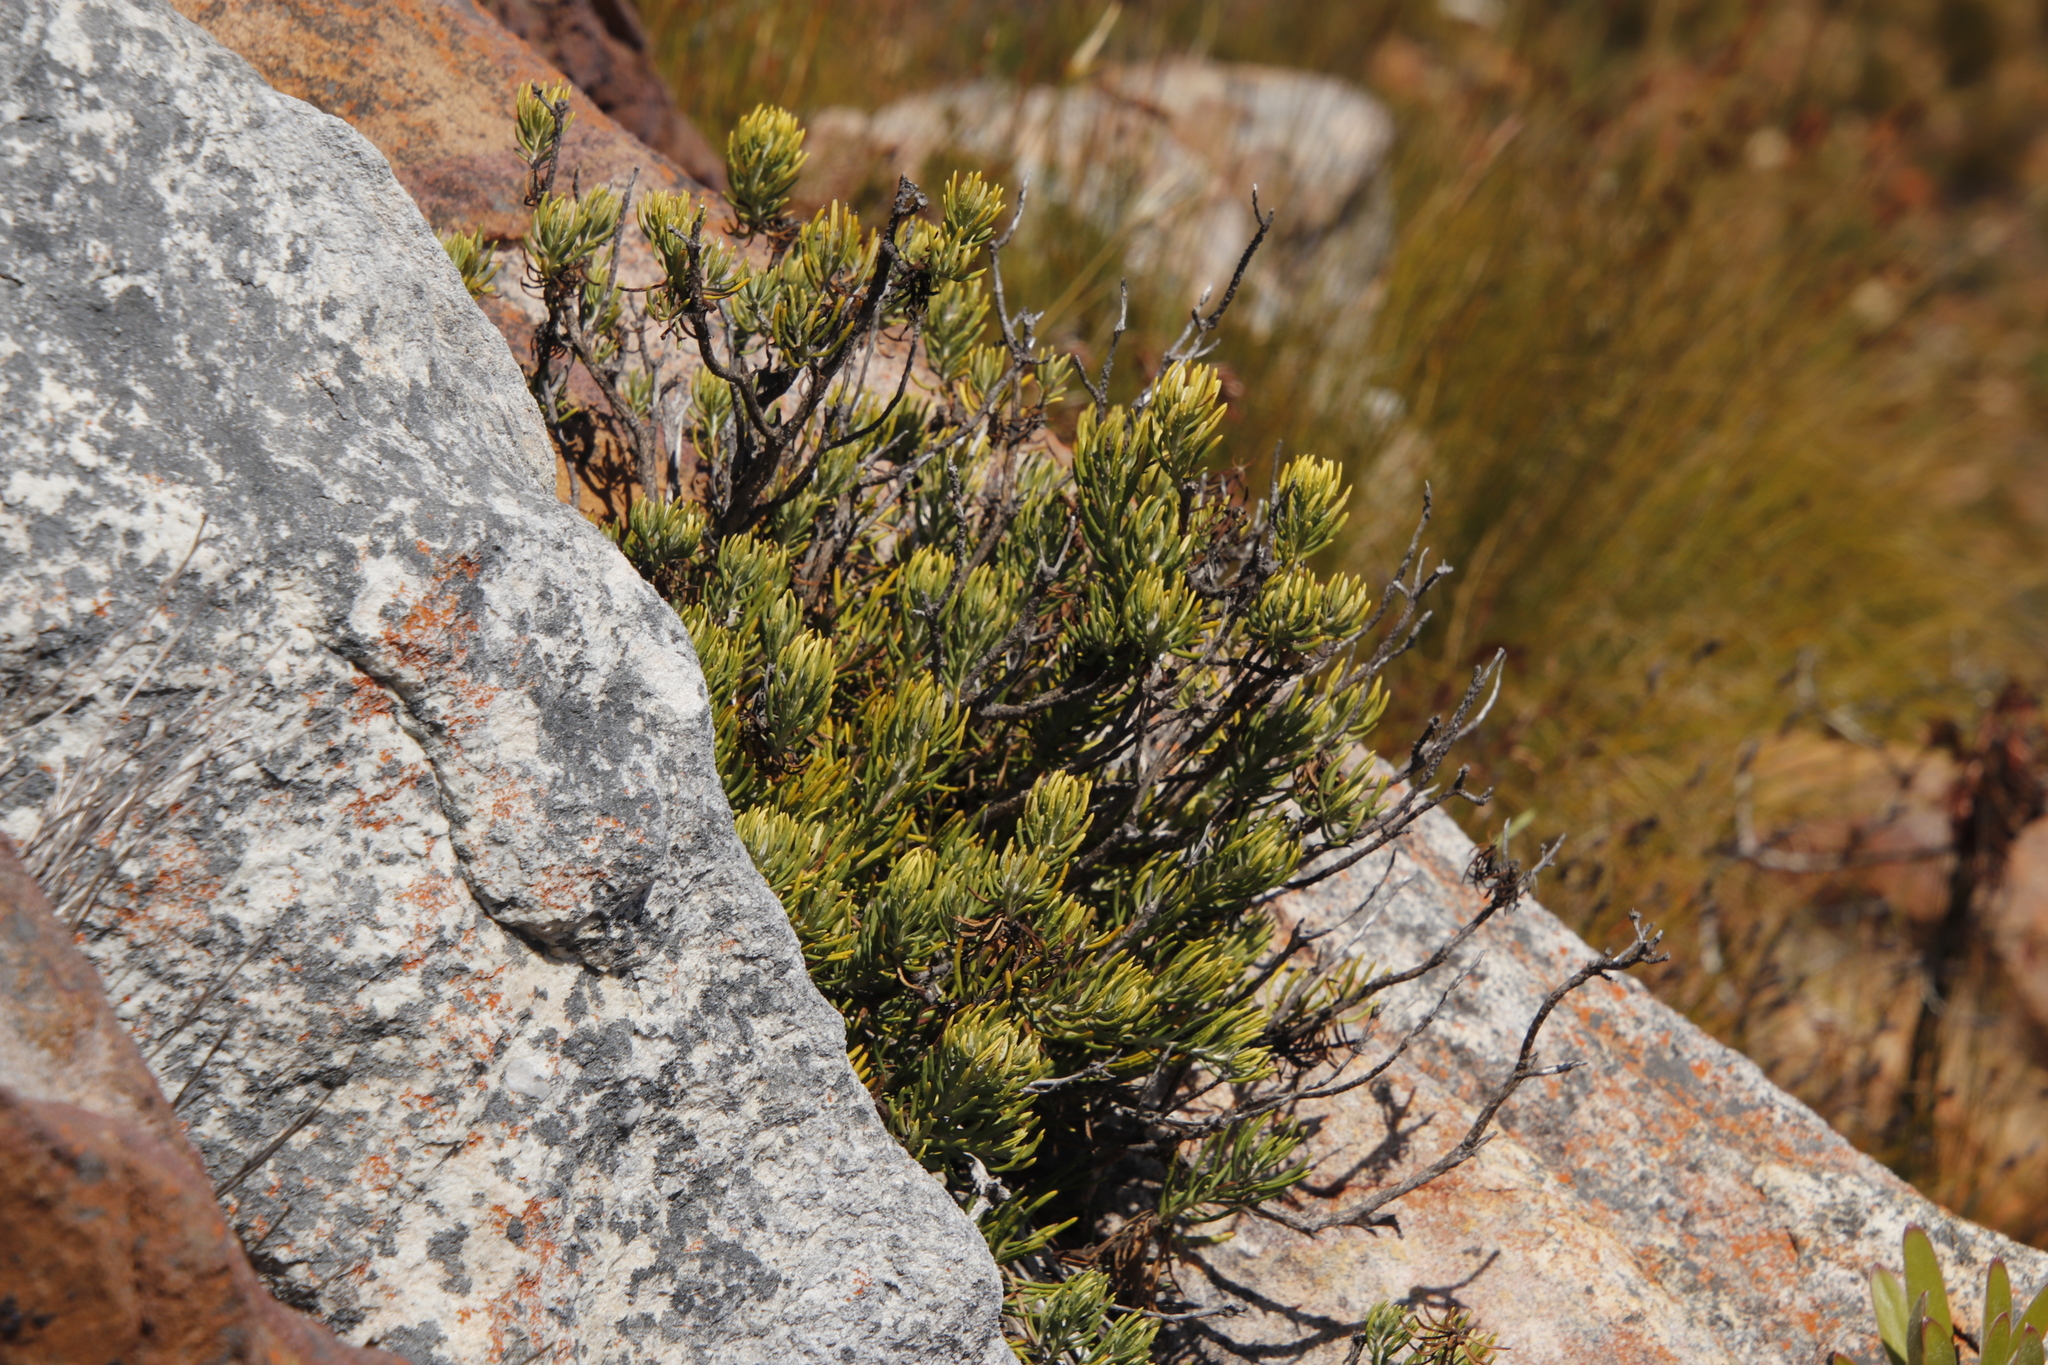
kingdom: Plantae
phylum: Tracheophyta
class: Magnoliopsida
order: Asterales
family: Asteraceae
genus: Heterolepis
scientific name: Heterolepis aliena
